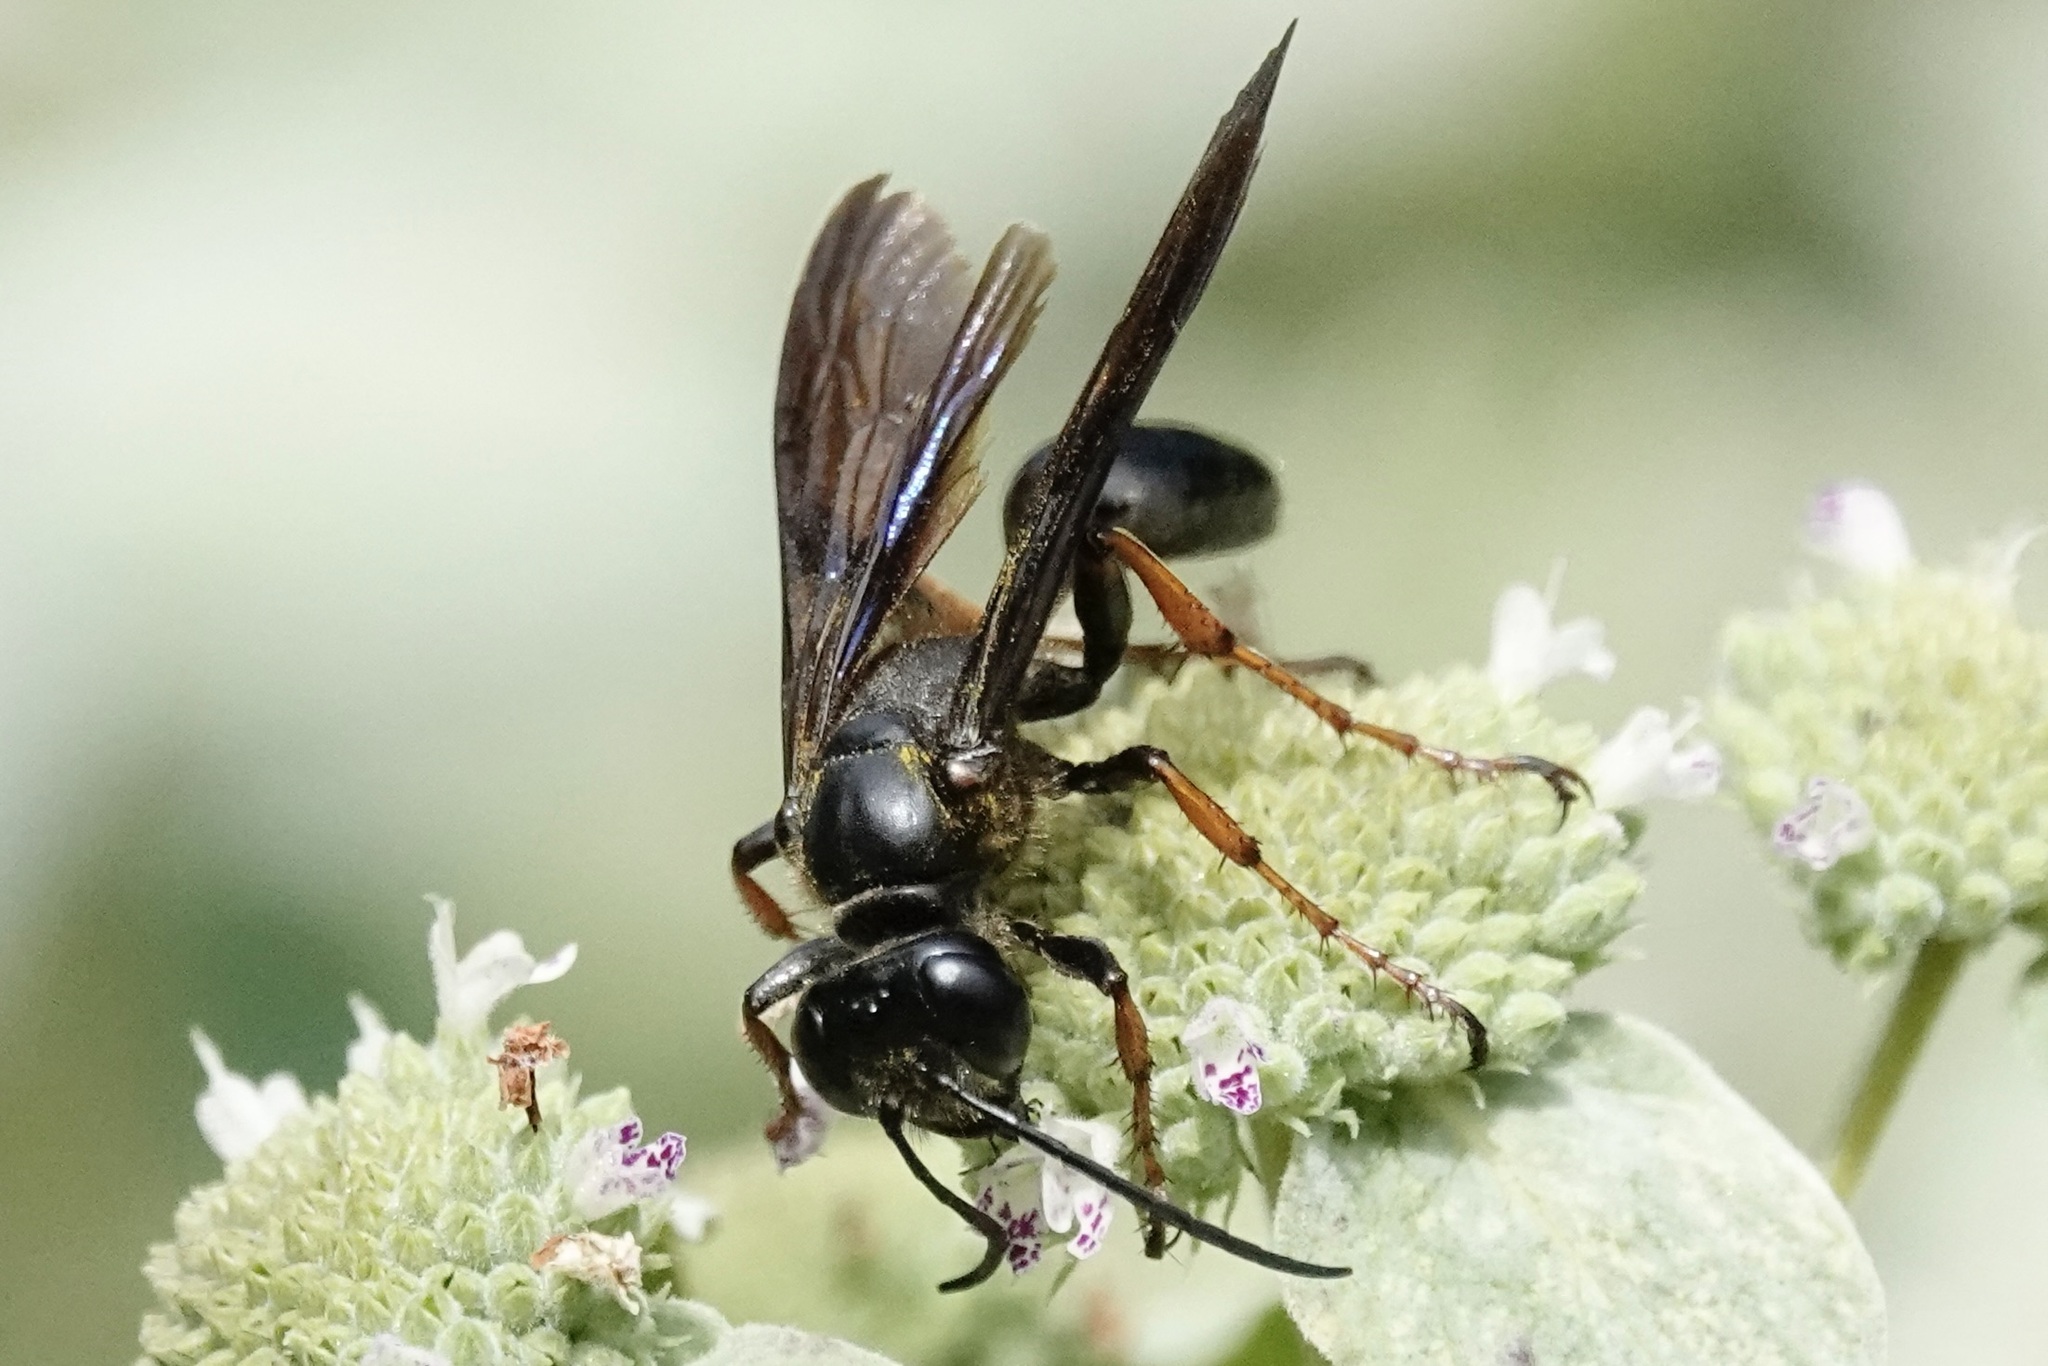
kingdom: Animalia
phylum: Arthropoda
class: Insecta
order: Hymenoptera
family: Sphecidae
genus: Isodontia
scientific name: Isodontia auripes
